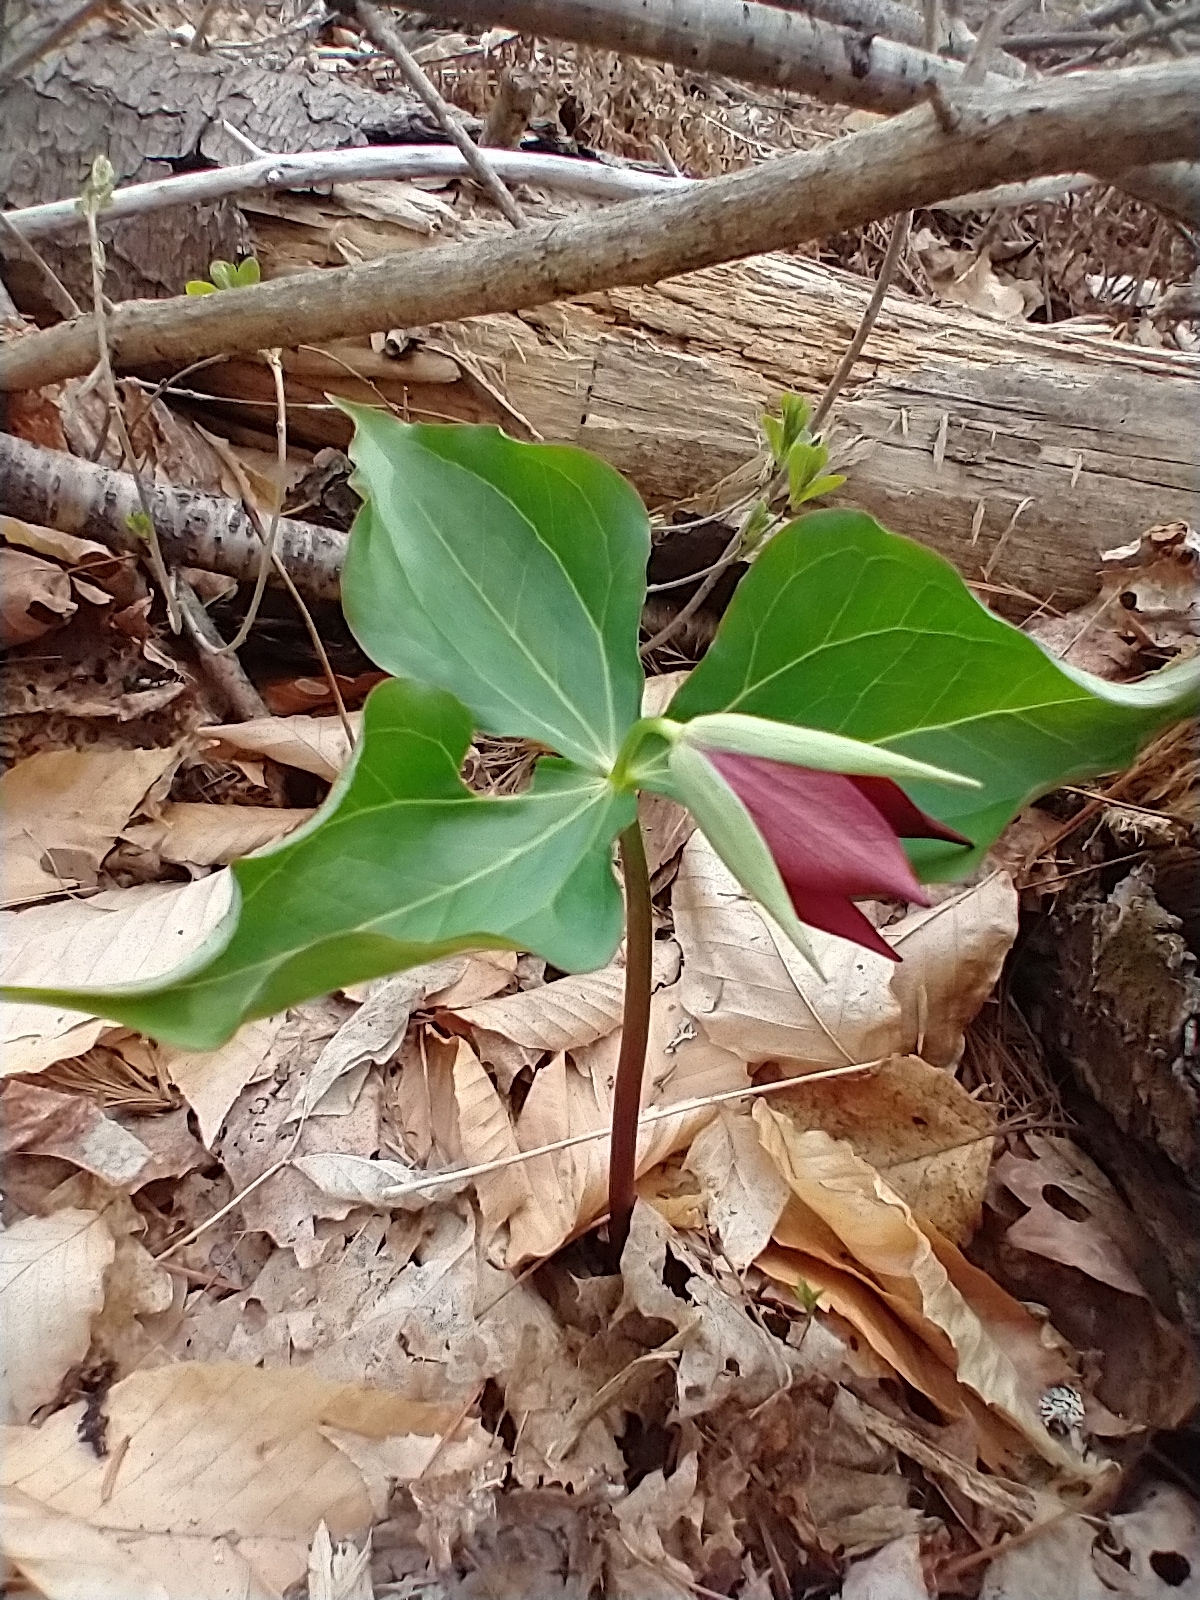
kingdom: Plantae
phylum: Tracheophyta
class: Liliopsida
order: Liliales
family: Melanthiaceae
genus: Trillium
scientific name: Trillium erectum
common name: Purple trillium
